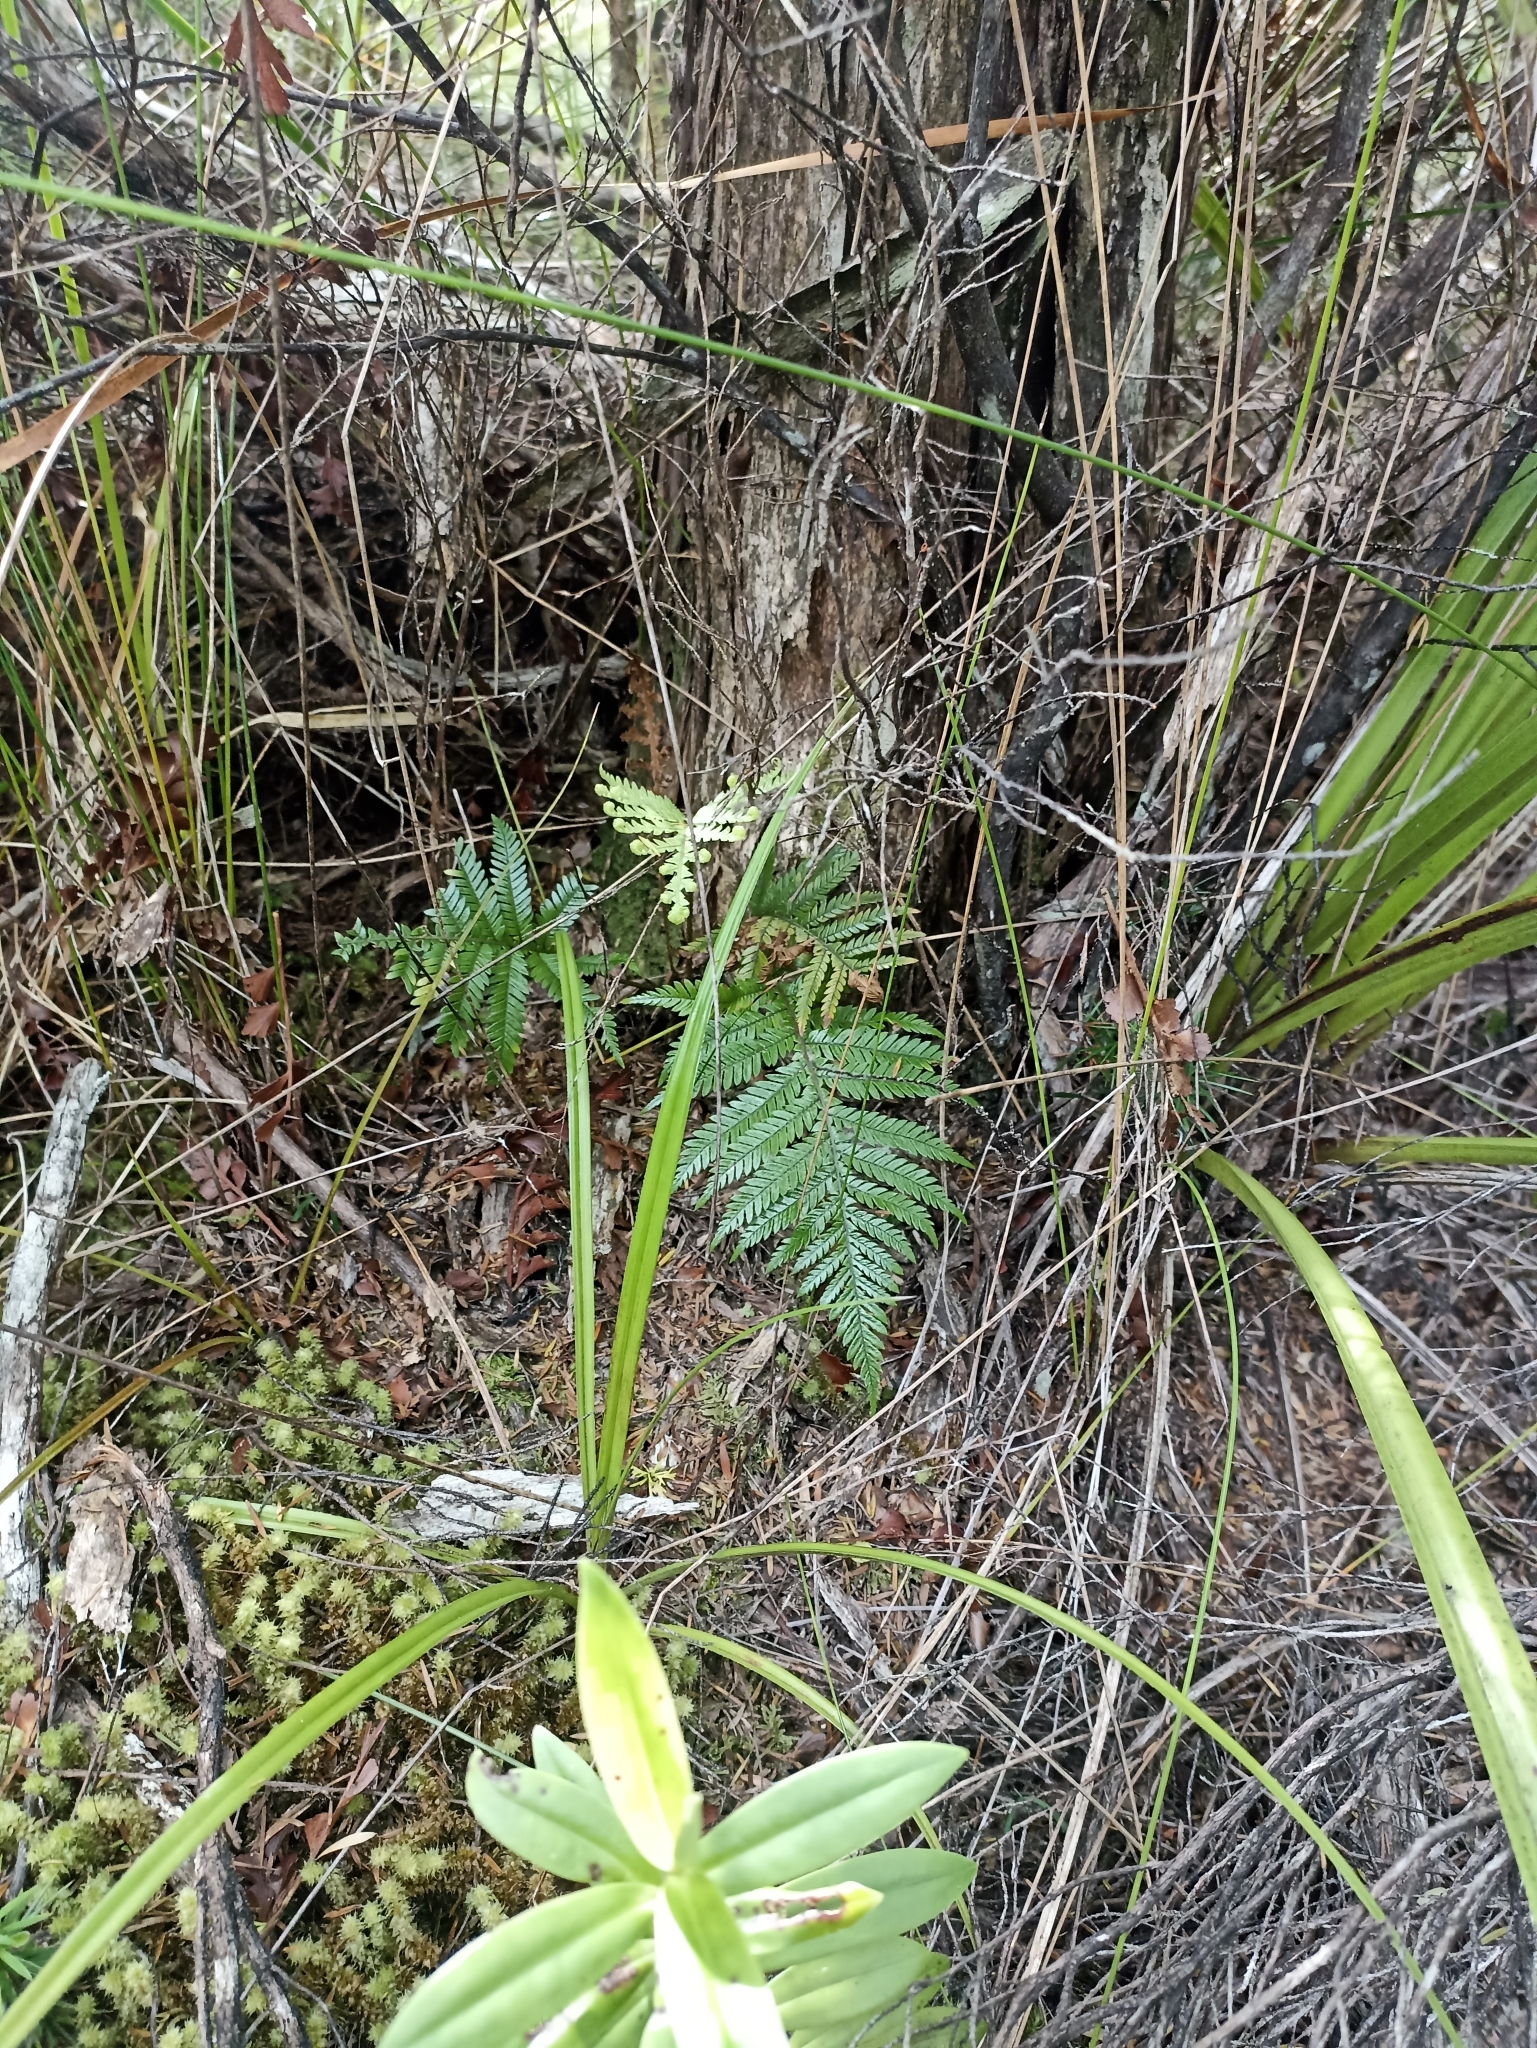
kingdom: Plantae
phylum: Tracheophyta
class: Polypodiopsida
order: Polypodiales
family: Blechnaceae
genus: Diploblechnum
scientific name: Diploblechnum fraseri
